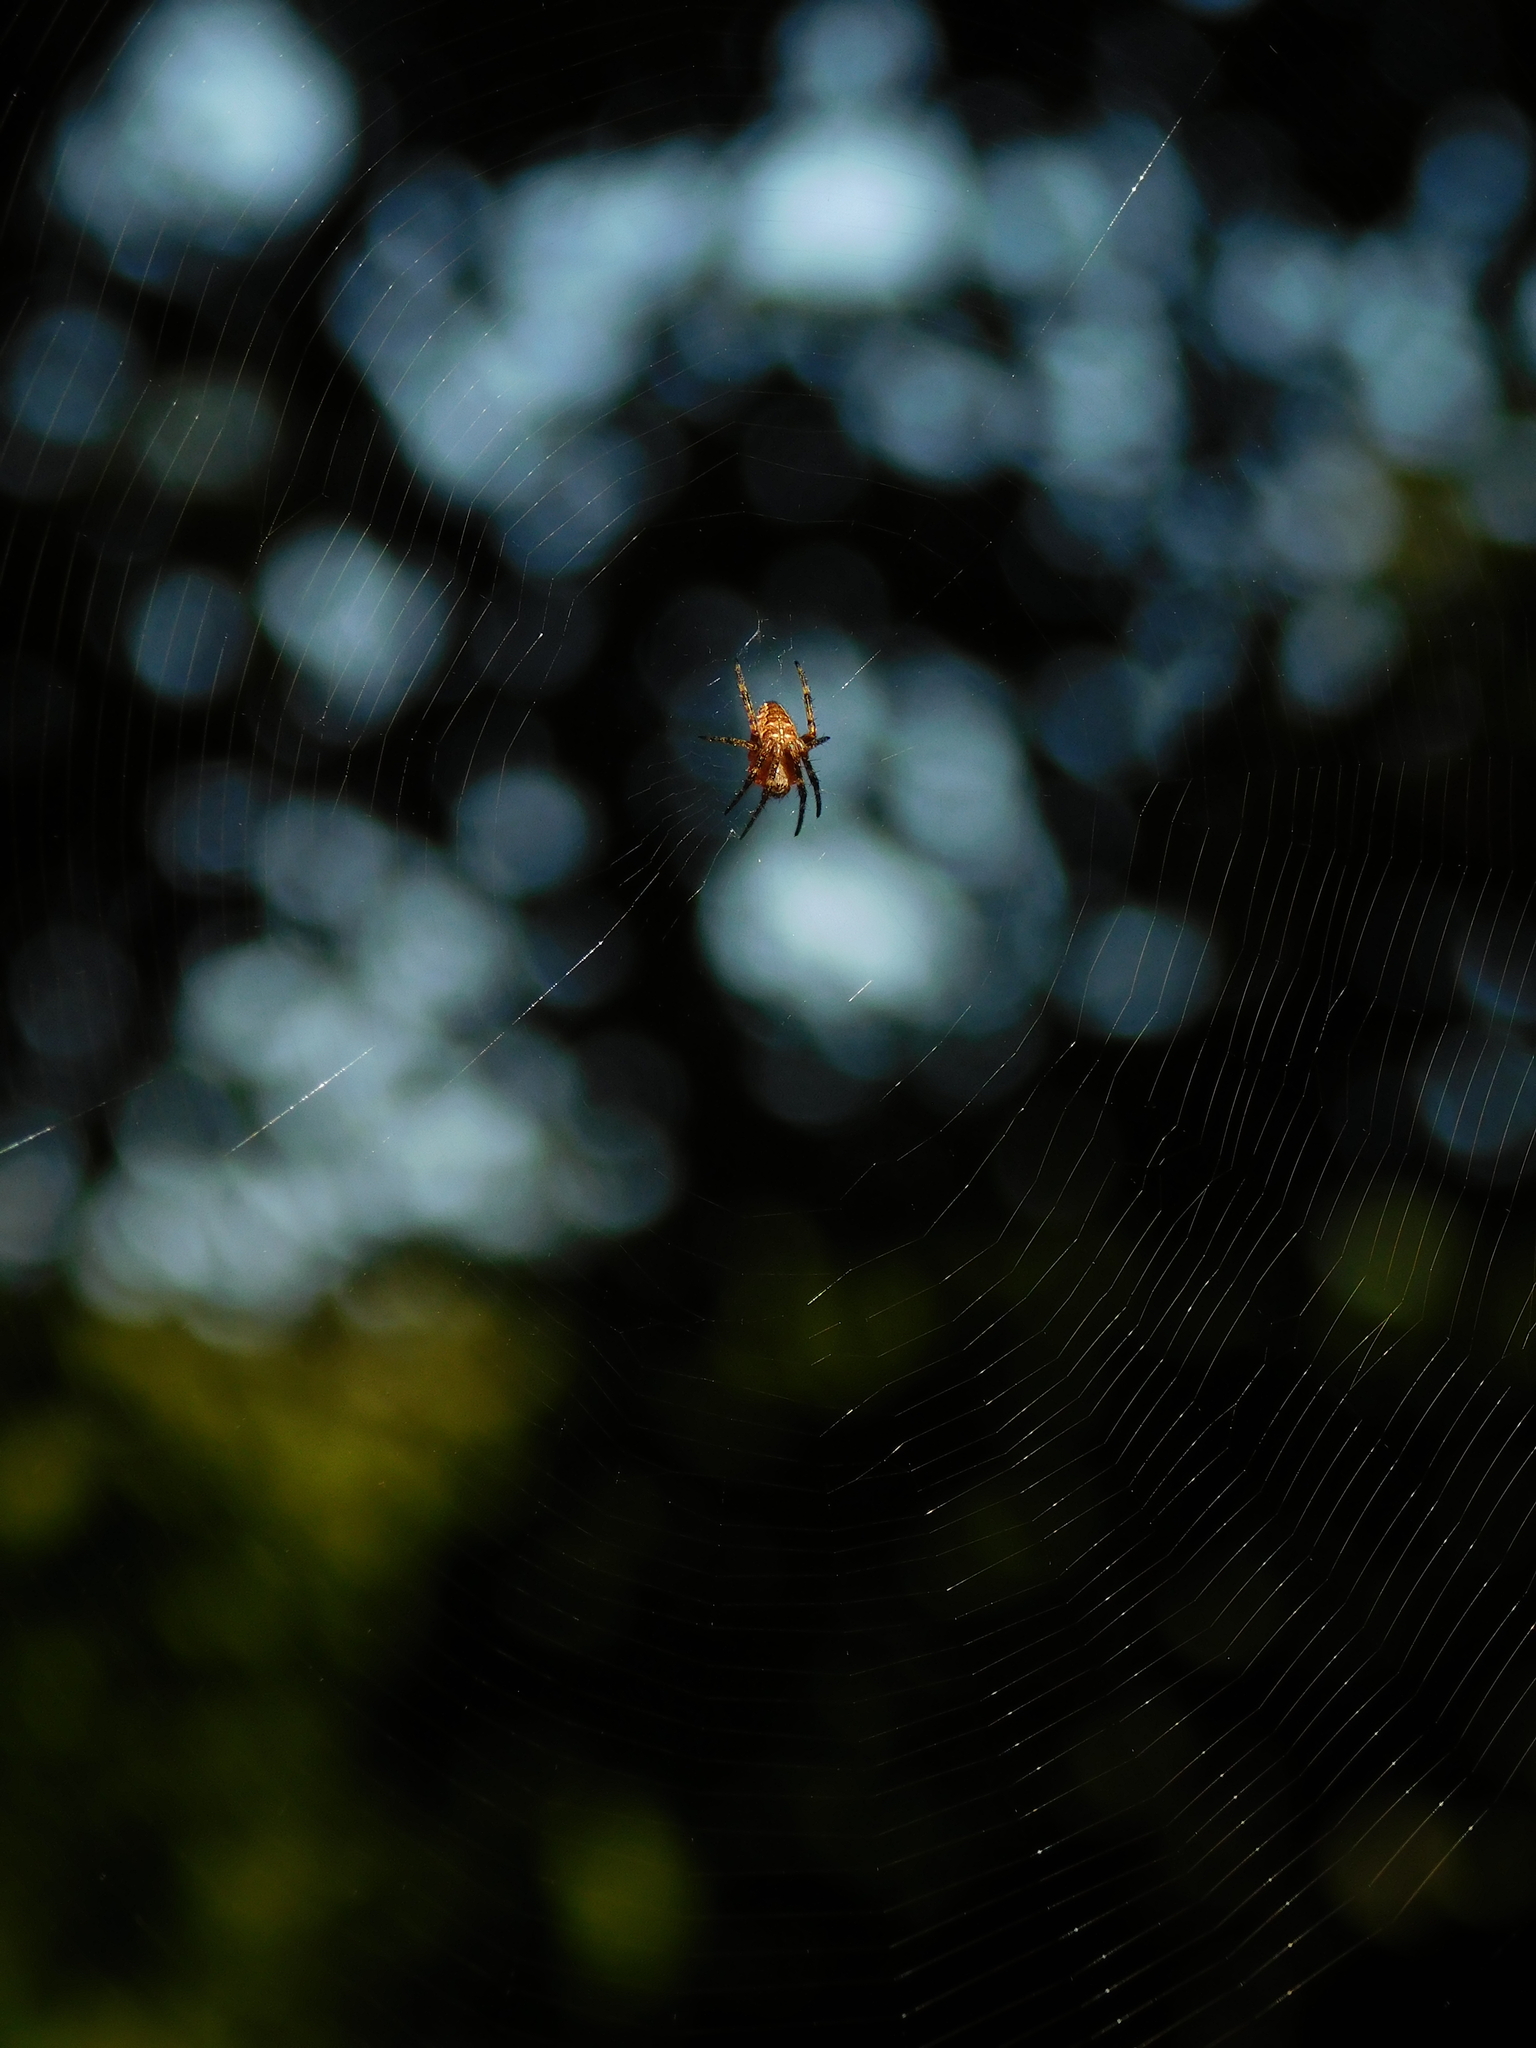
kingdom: Animalia
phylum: Arthropoda
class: Arachnida
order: Araneae
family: Araneidae
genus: Araneus
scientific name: Araneus diadematus
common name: Cross orbweaver
